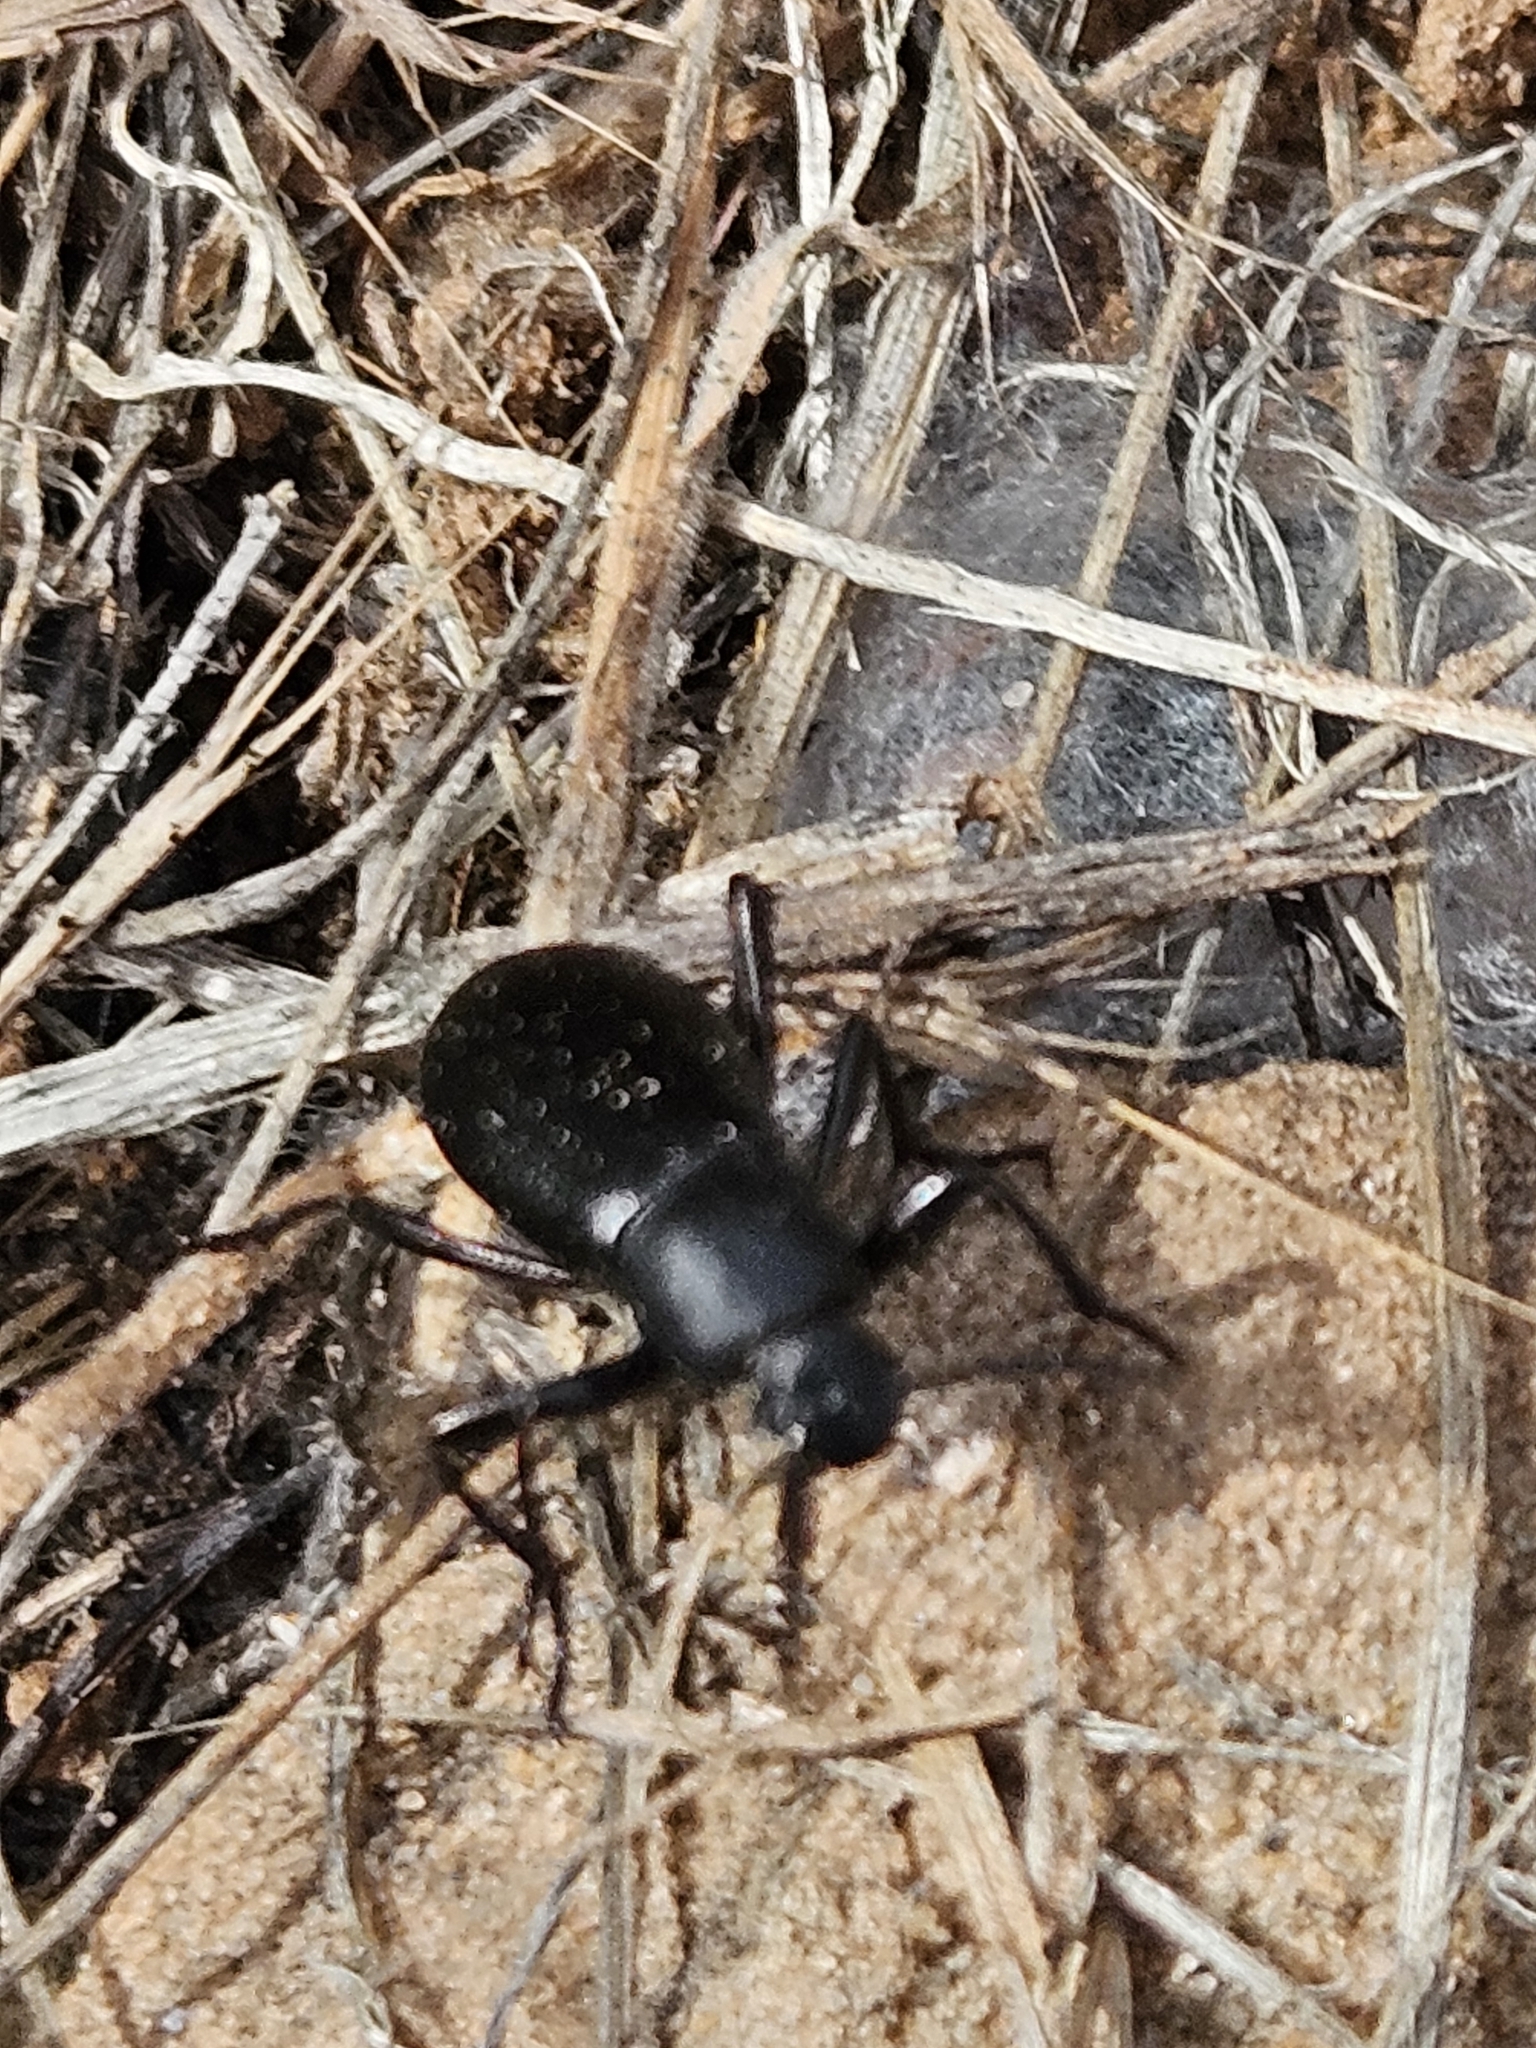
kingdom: Animalia
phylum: Arthropoda
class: Insecta
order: Coleoptera
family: Tenebrionidae
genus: Eleodes
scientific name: Eleodes extricata
